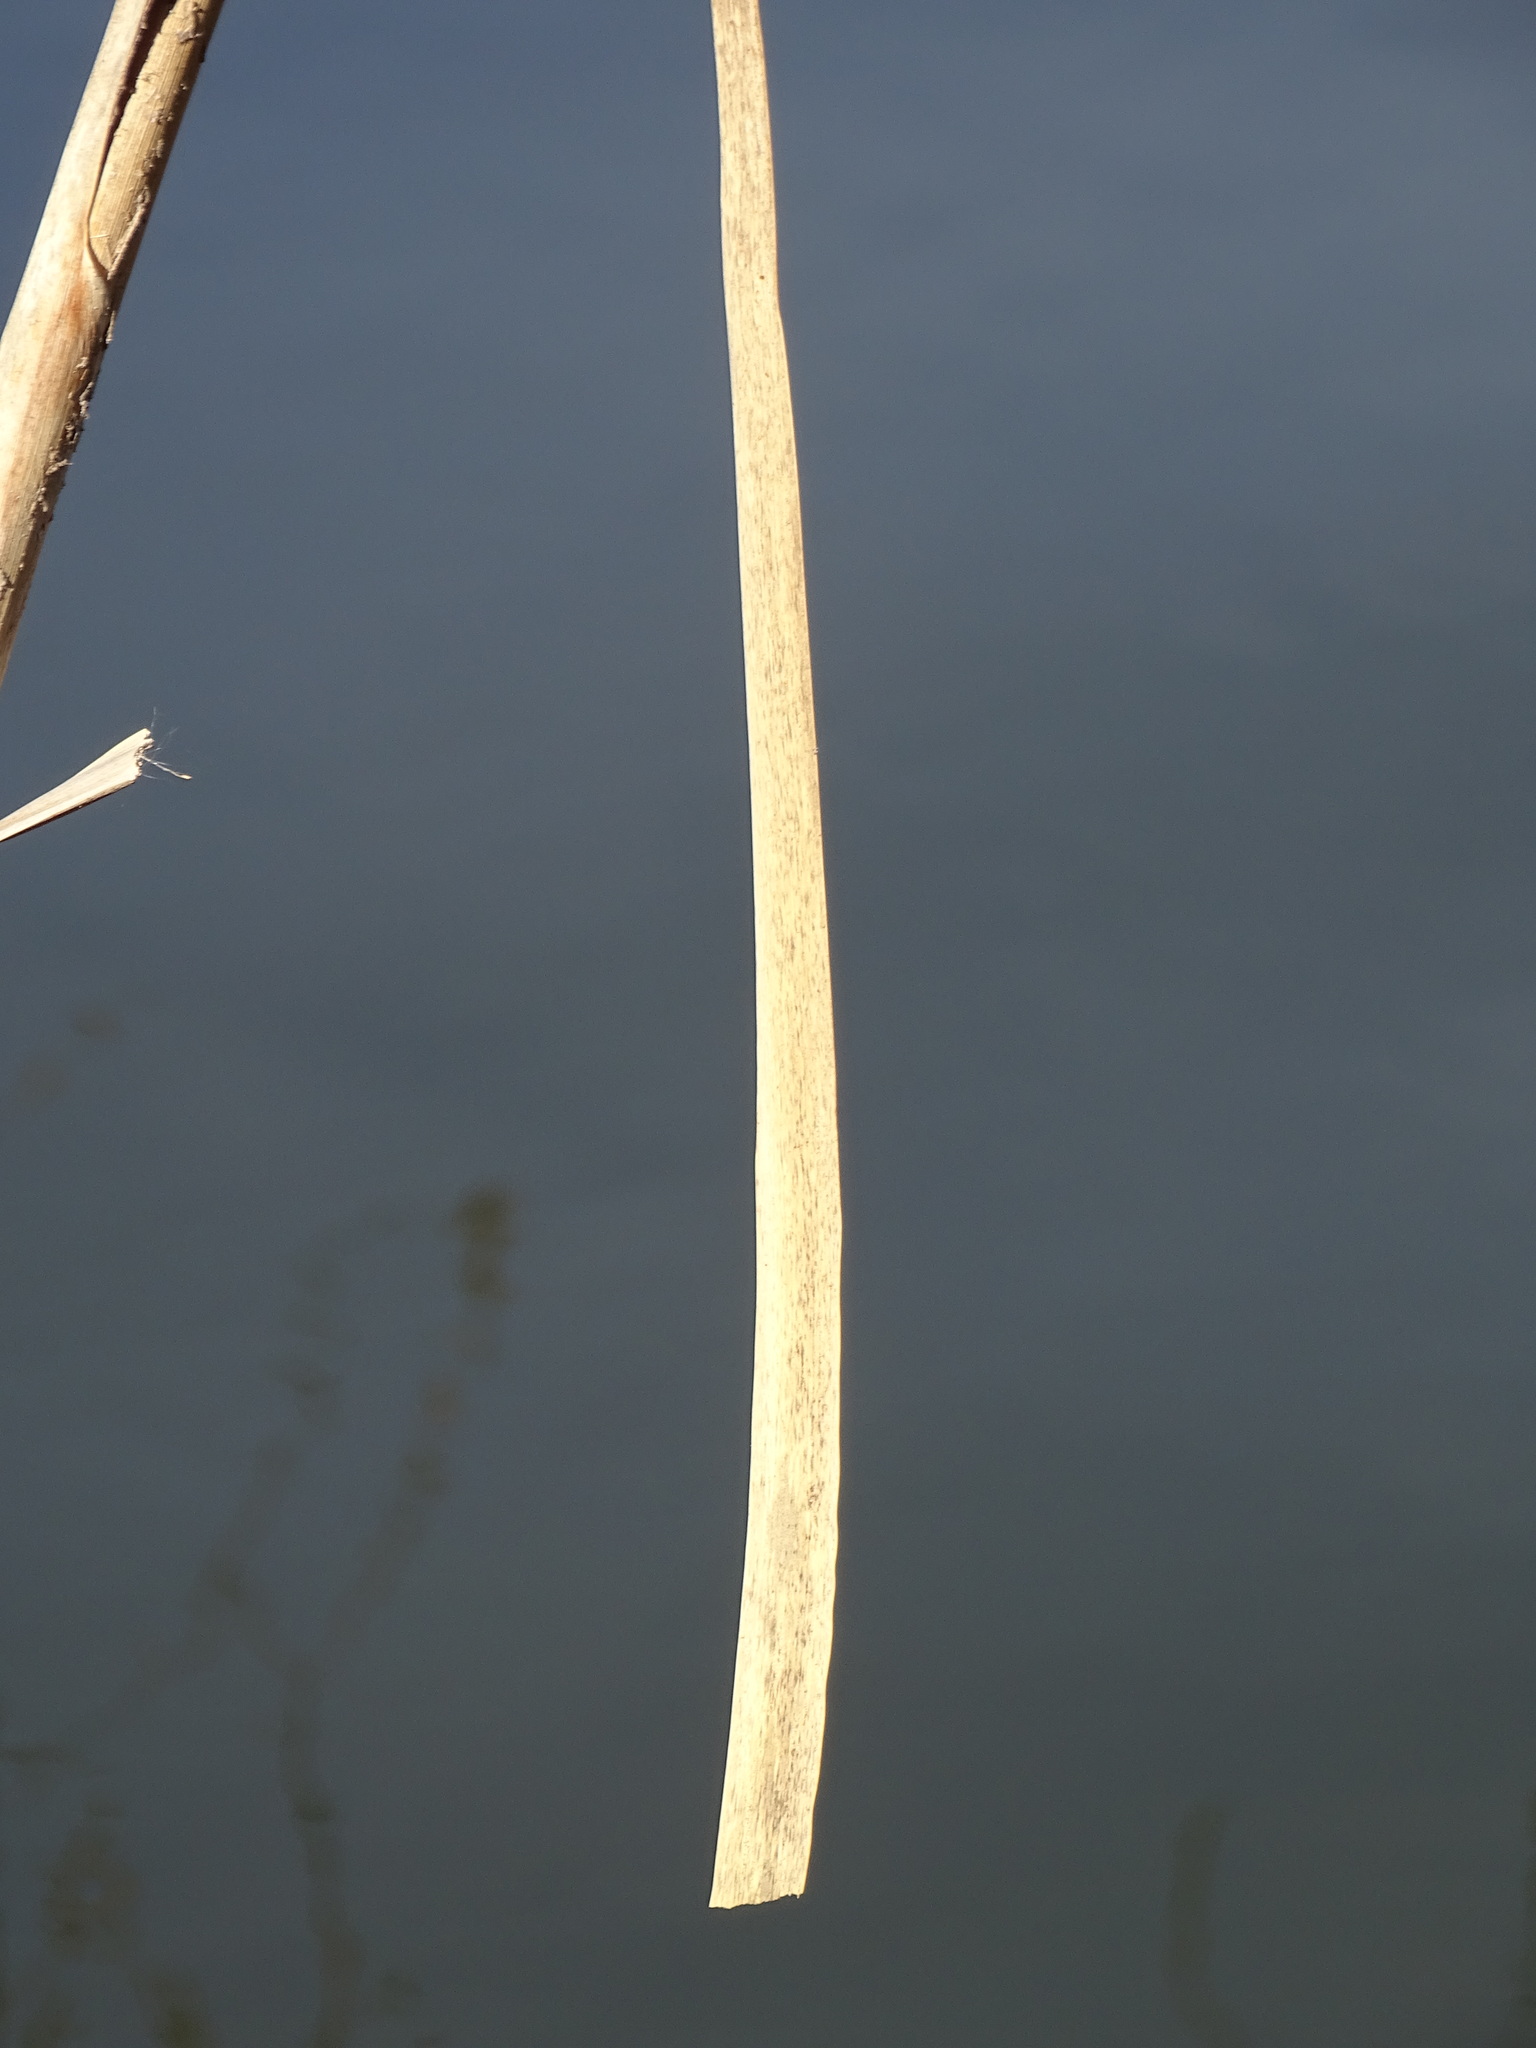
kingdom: Plantae
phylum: Tracheophyta
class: Liliopsida
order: Poales
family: Typhaceae
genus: Typha
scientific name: Typha latifolia
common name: Broadleaf cattail
